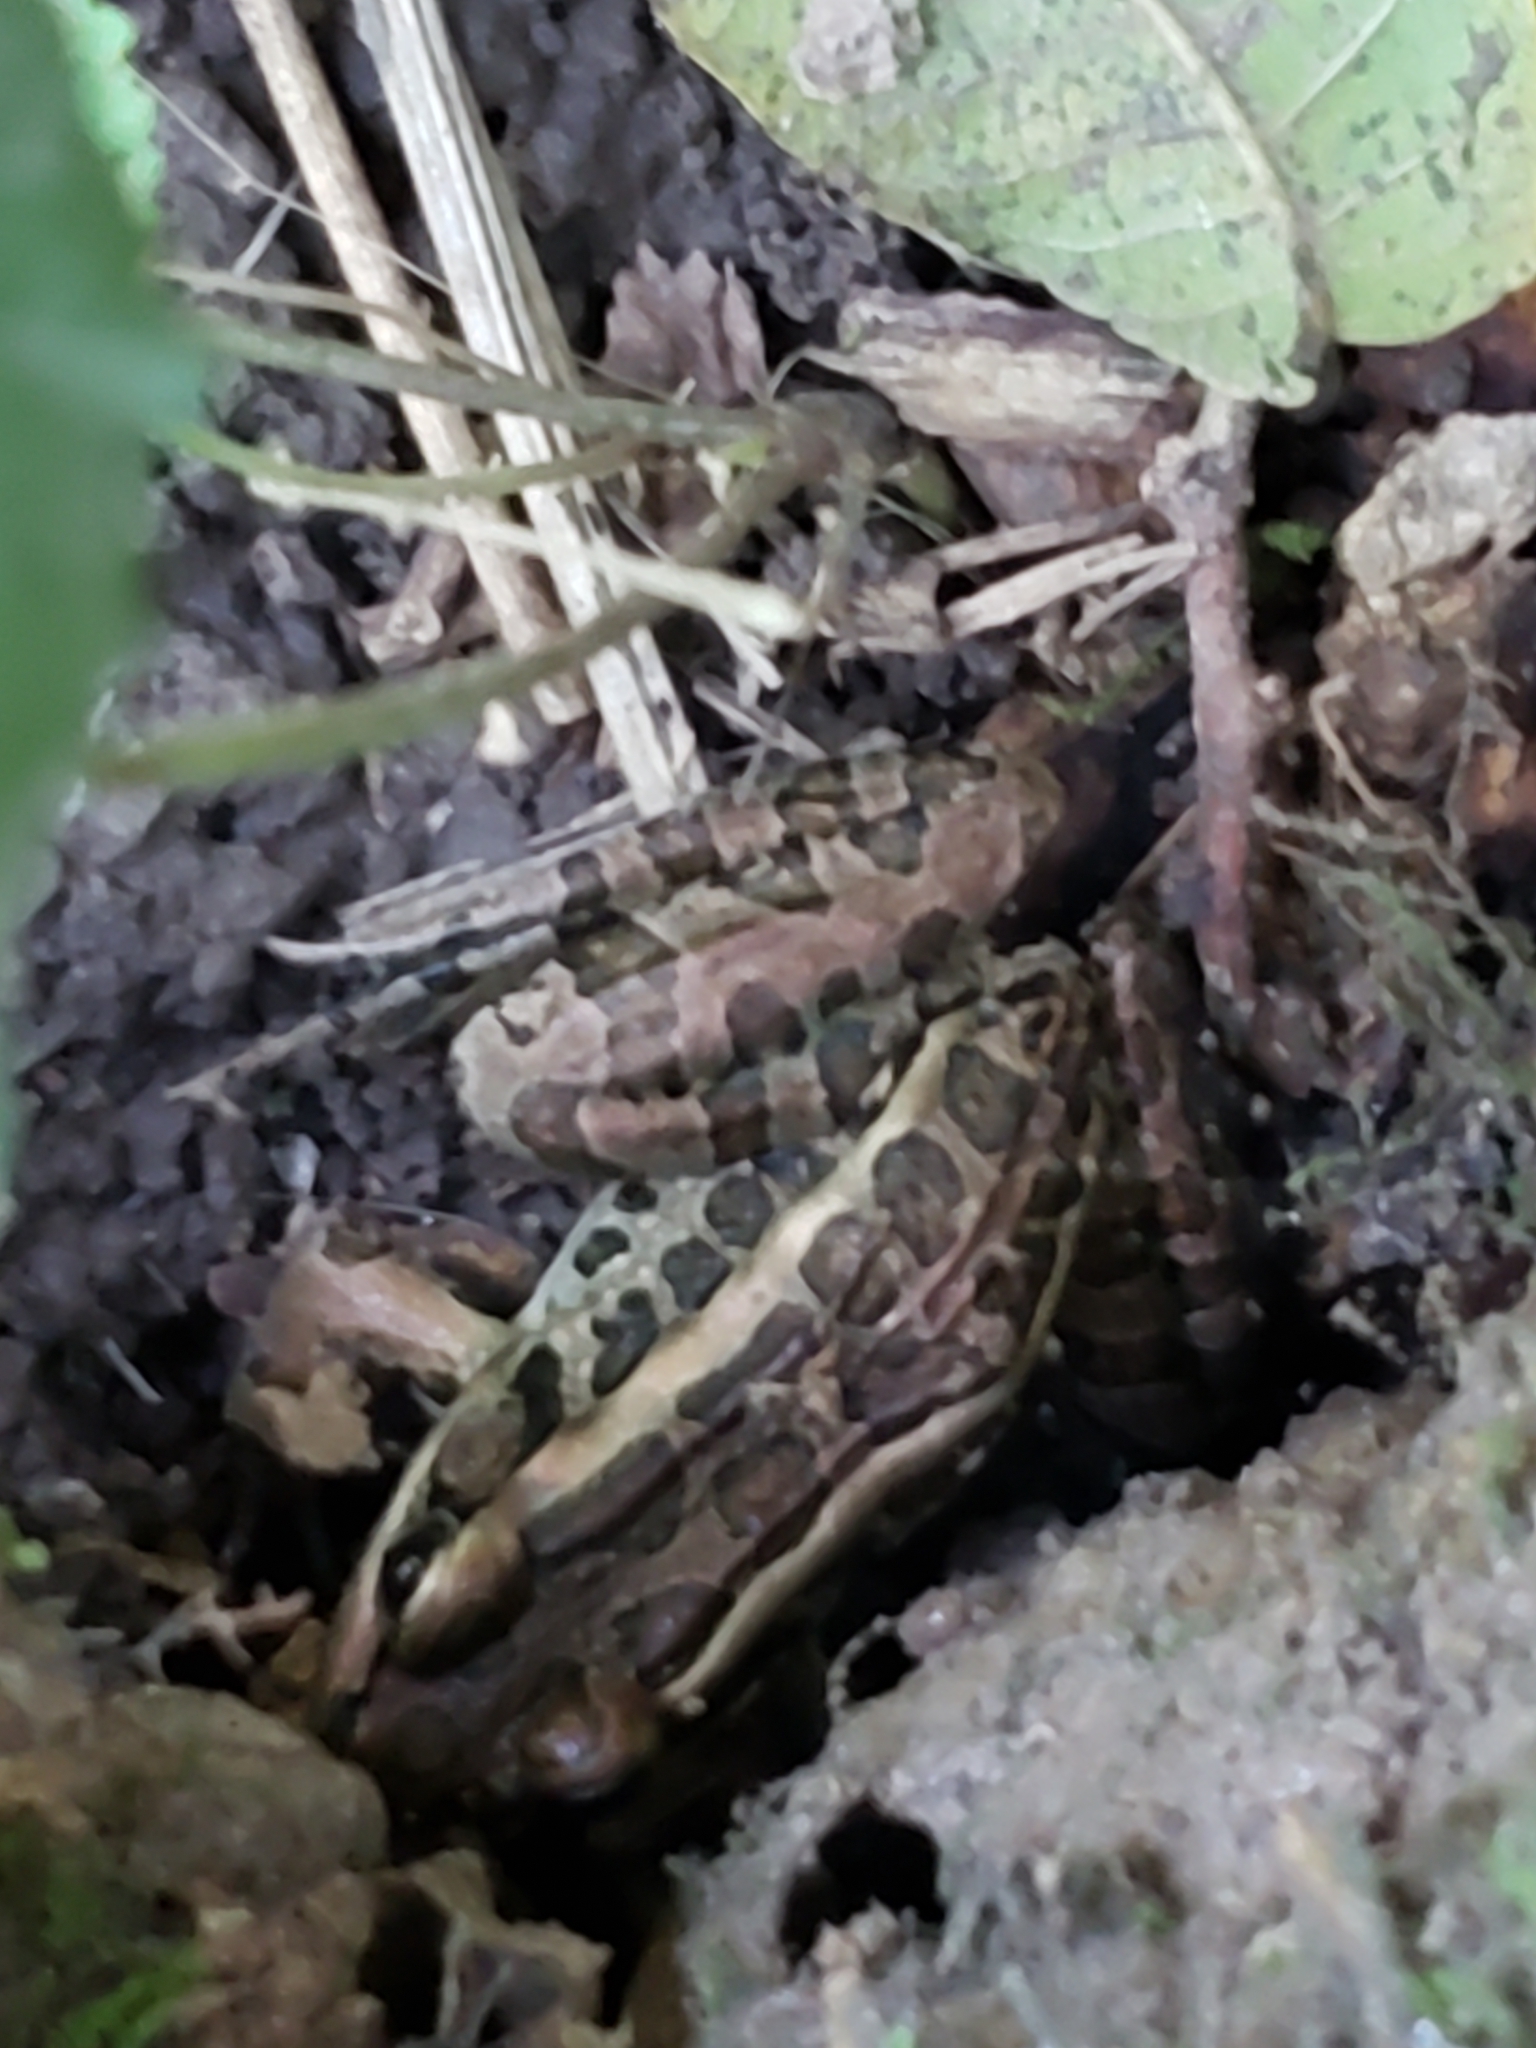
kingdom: Animalia
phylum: Chordata
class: Amphibia
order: Anura
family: Ranidae
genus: Lithobates
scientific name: Lithobates palustris
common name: Pickerel frog
